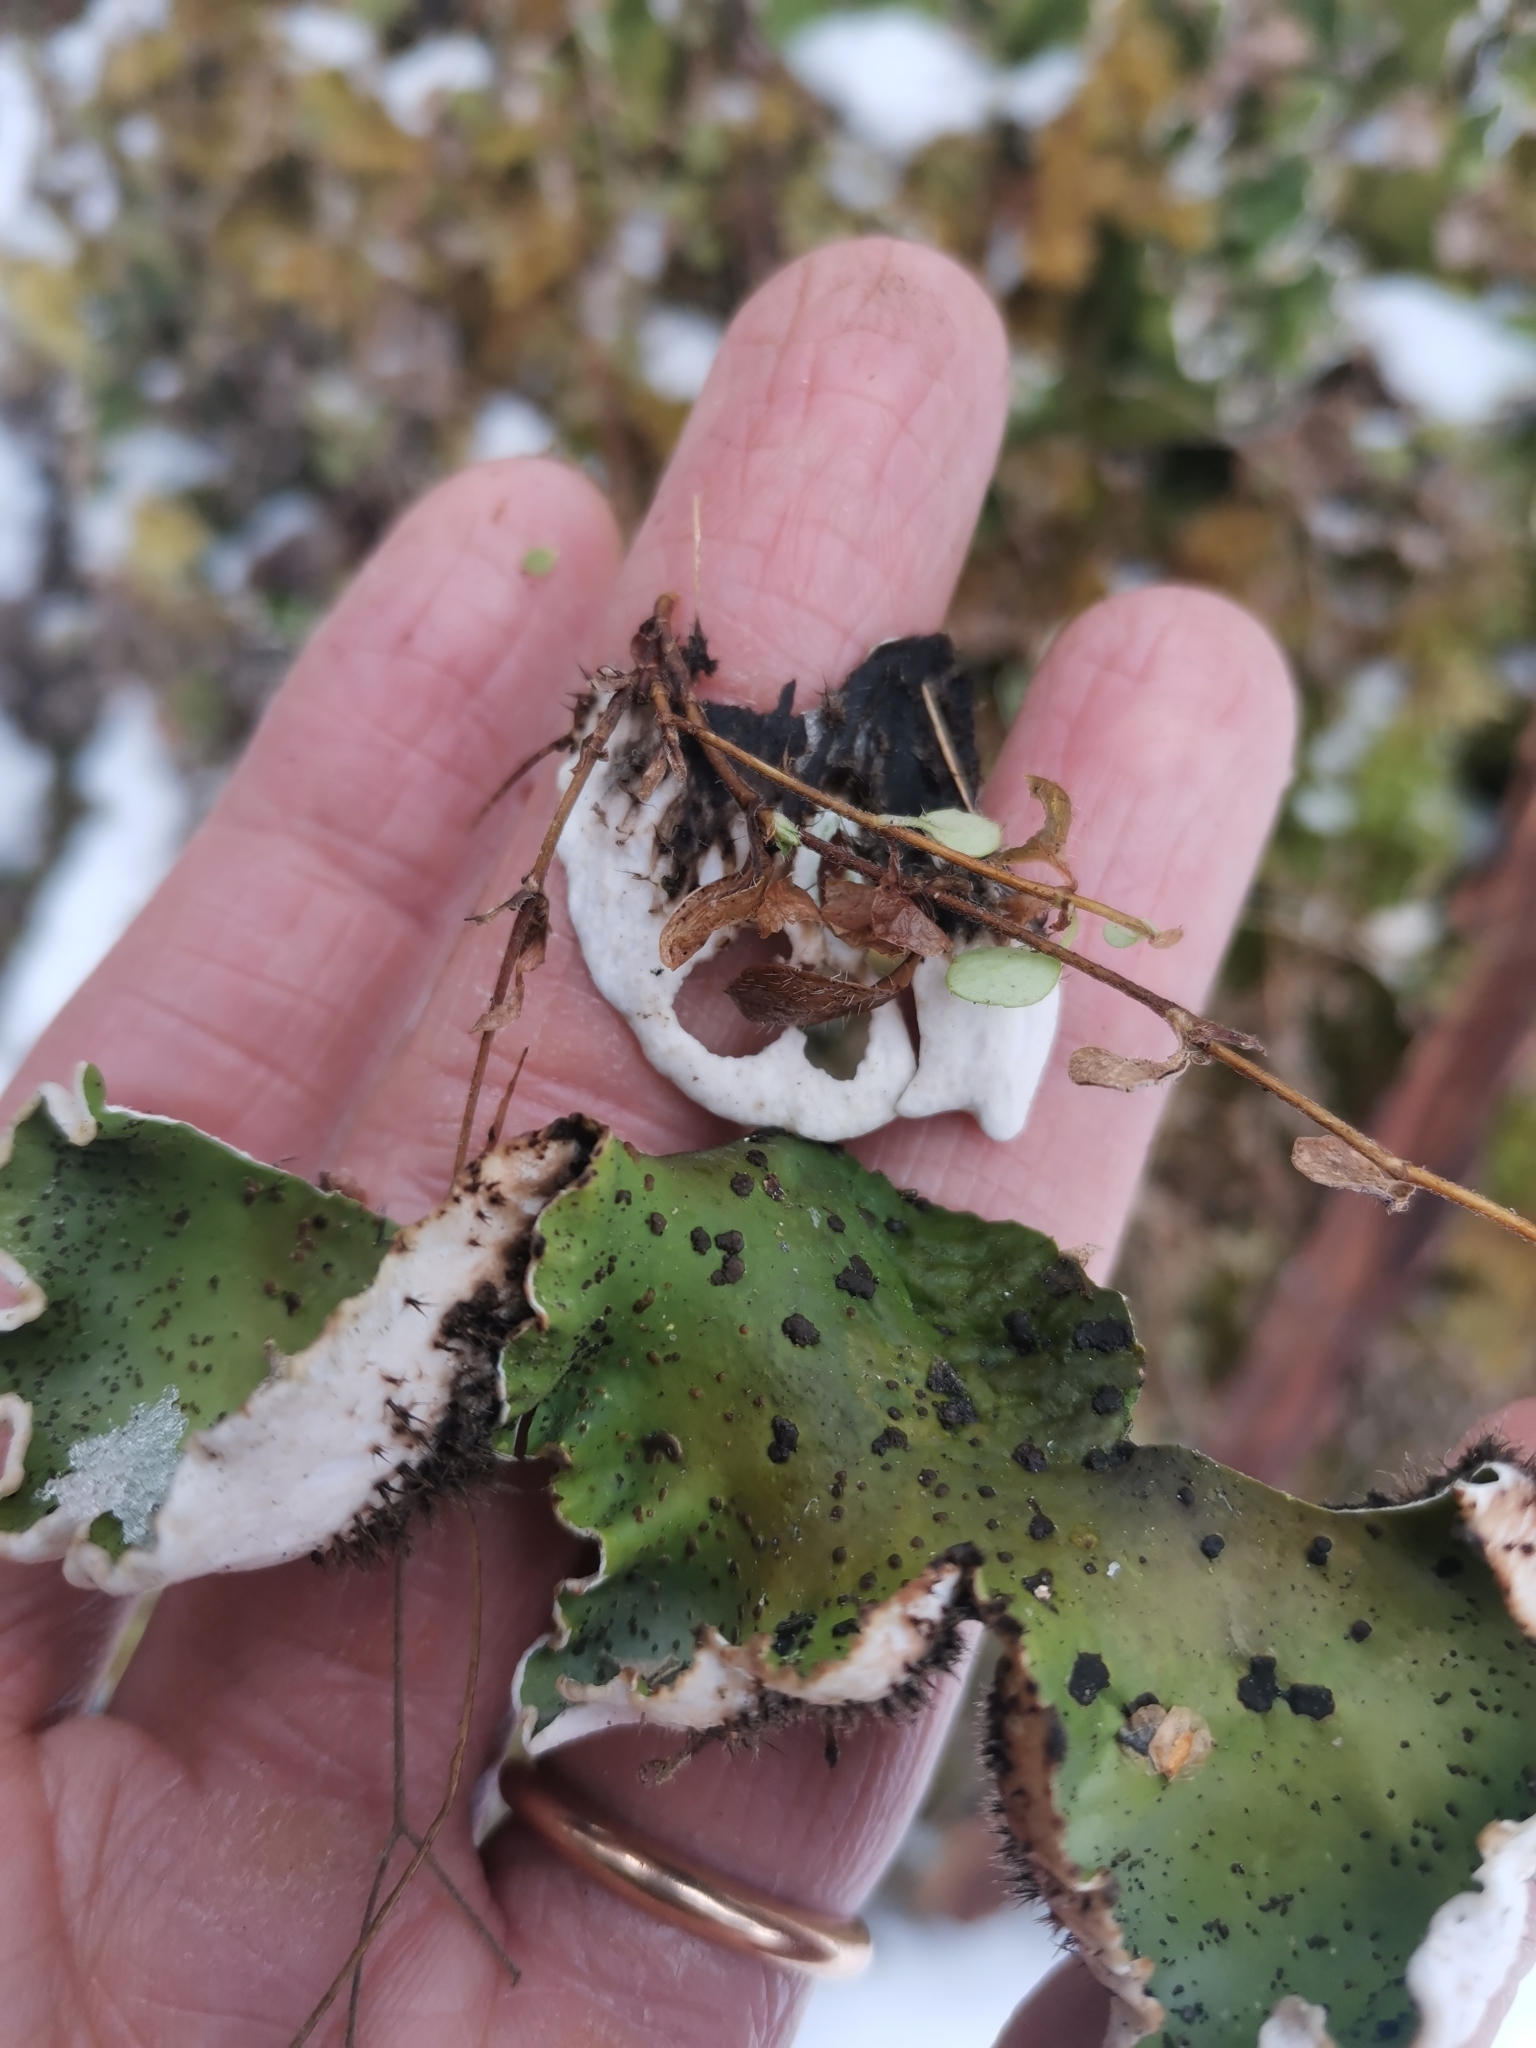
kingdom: Fungi
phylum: Ascomycota
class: Lecanoromycetes
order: Peltigerales
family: Peltigeraceae
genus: Peltigera
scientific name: Peltigera aphthosa
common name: Common freckle pelt lichen
